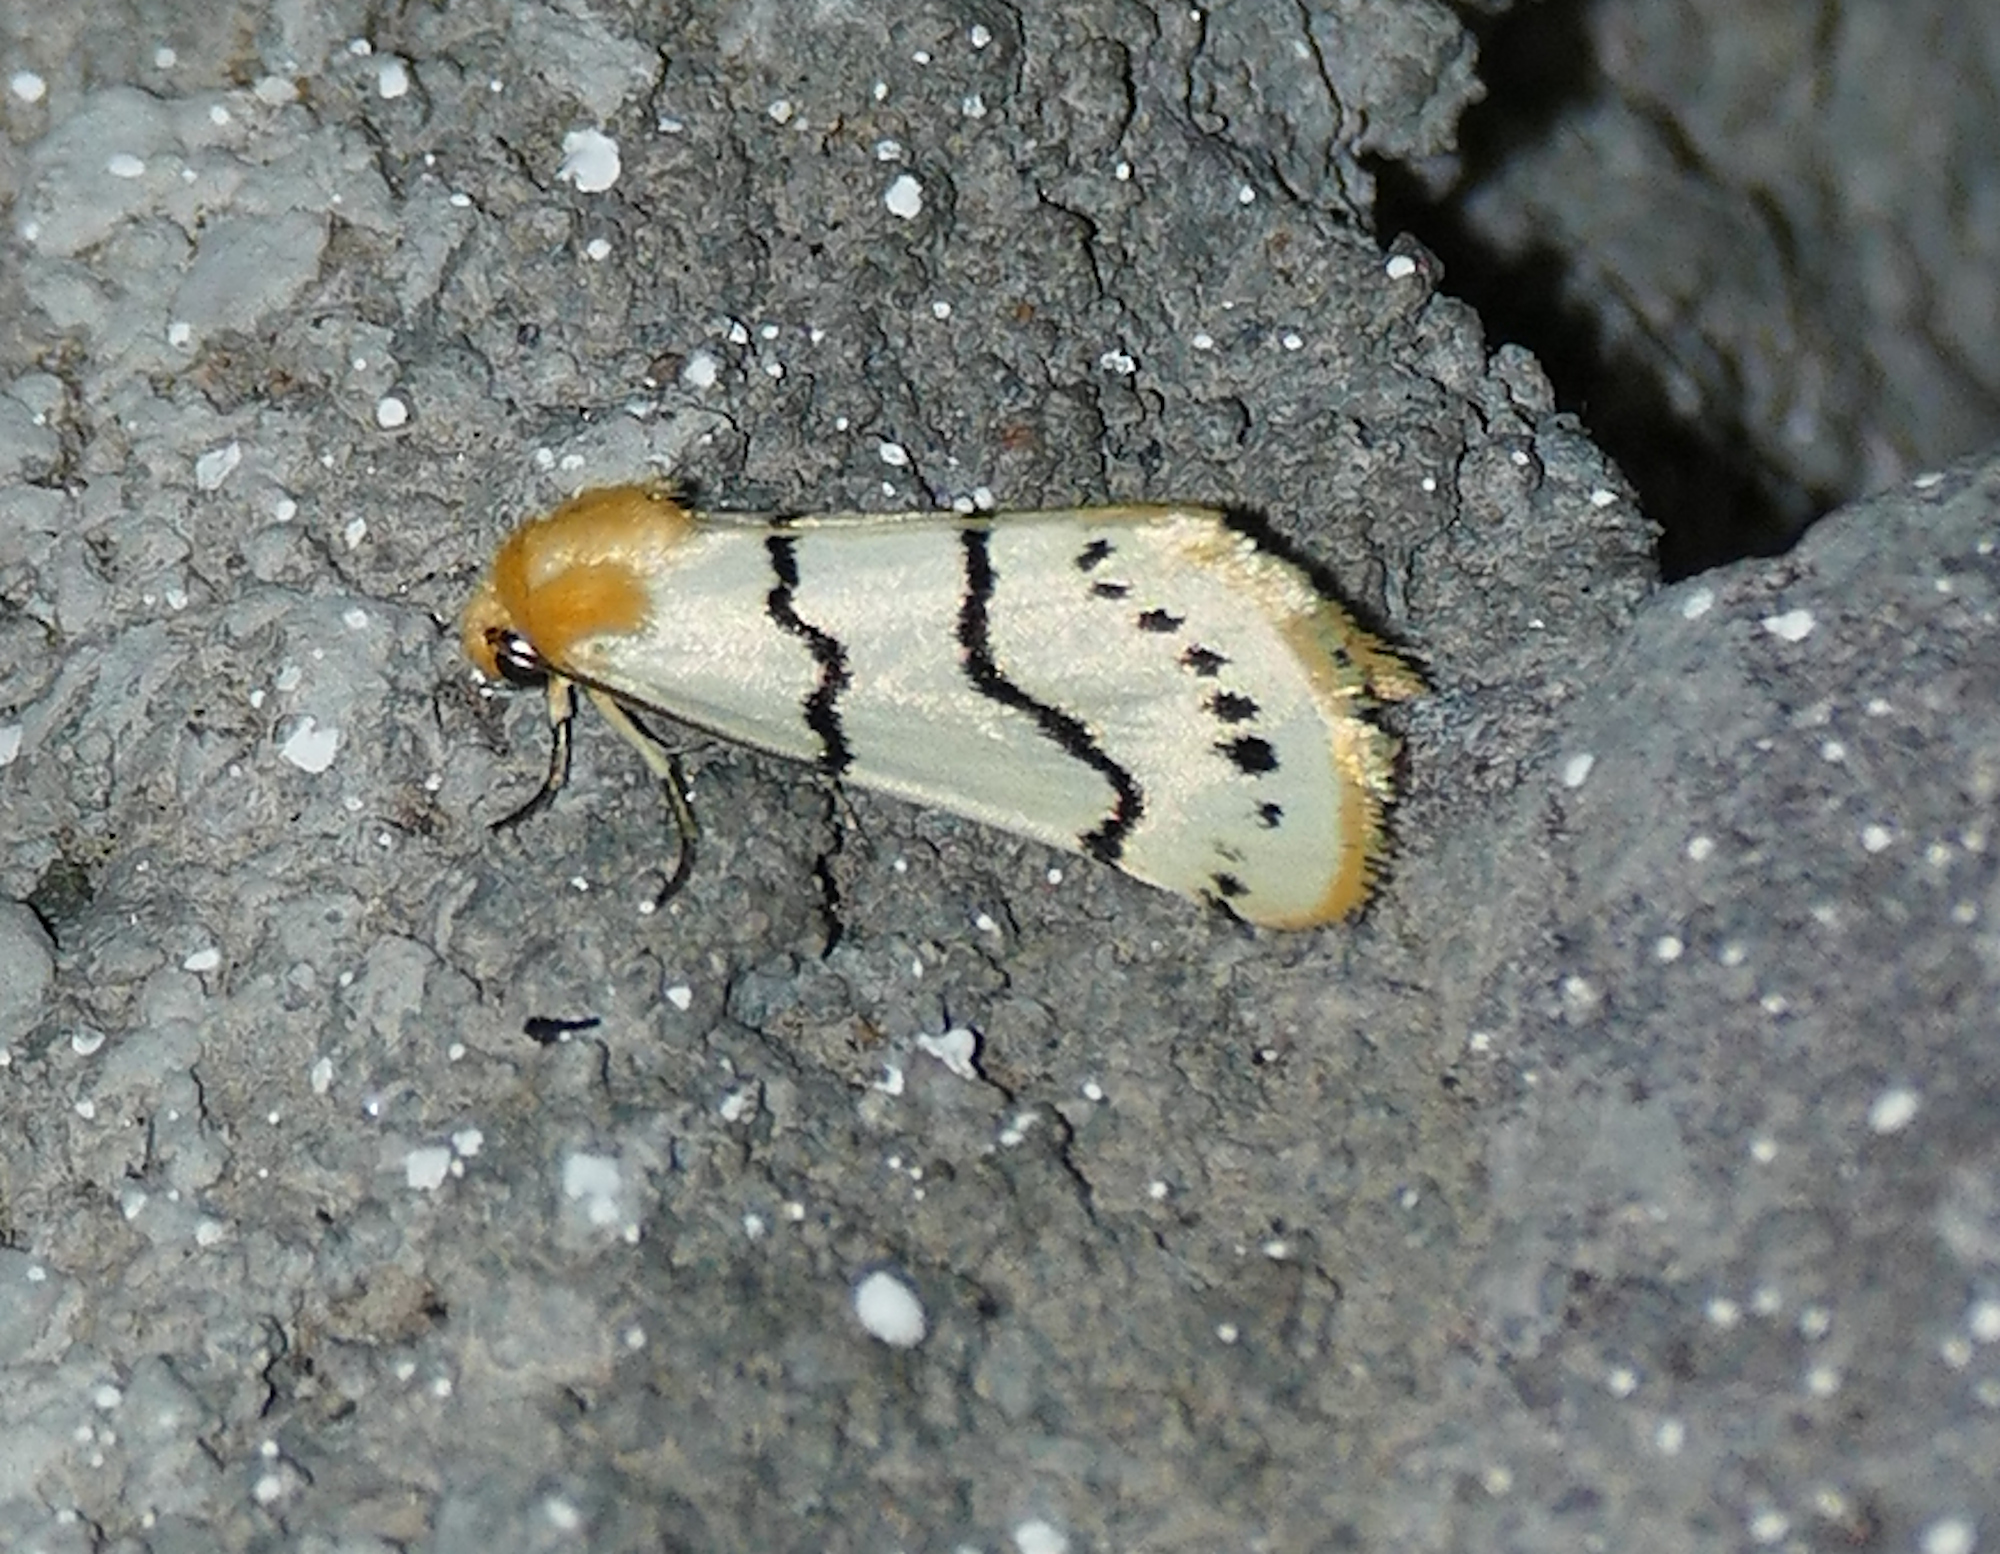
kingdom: Animalia
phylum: Arthropoda
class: Insecta
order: Lepidoptera
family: Noctuidae
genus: Lineostriastiria
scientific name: Lineostriastiria sexseriata
